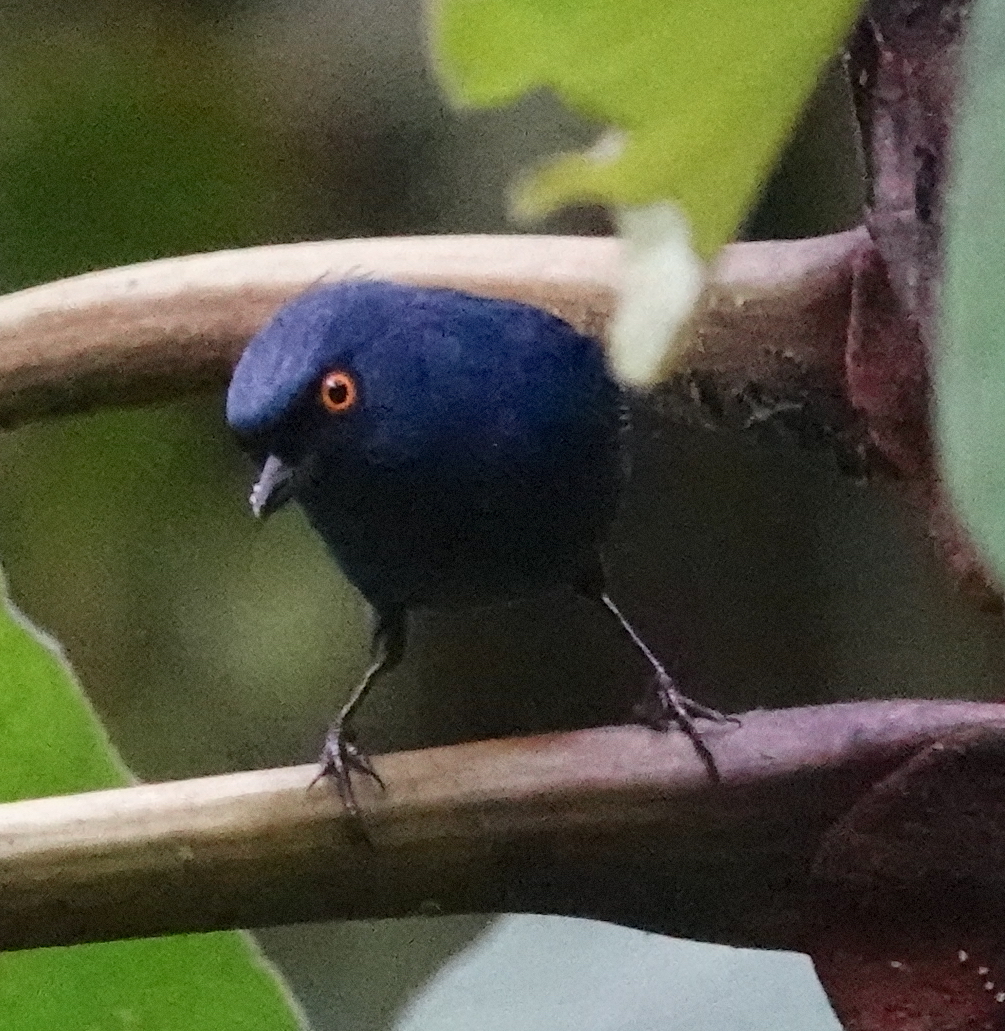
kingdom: Animalia
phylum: Chordata
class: Aves
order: Passeriformes
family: Thraupidae
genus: Diglossa
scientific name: Diglossa glauca
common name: Deep-blue flowerpiercer
